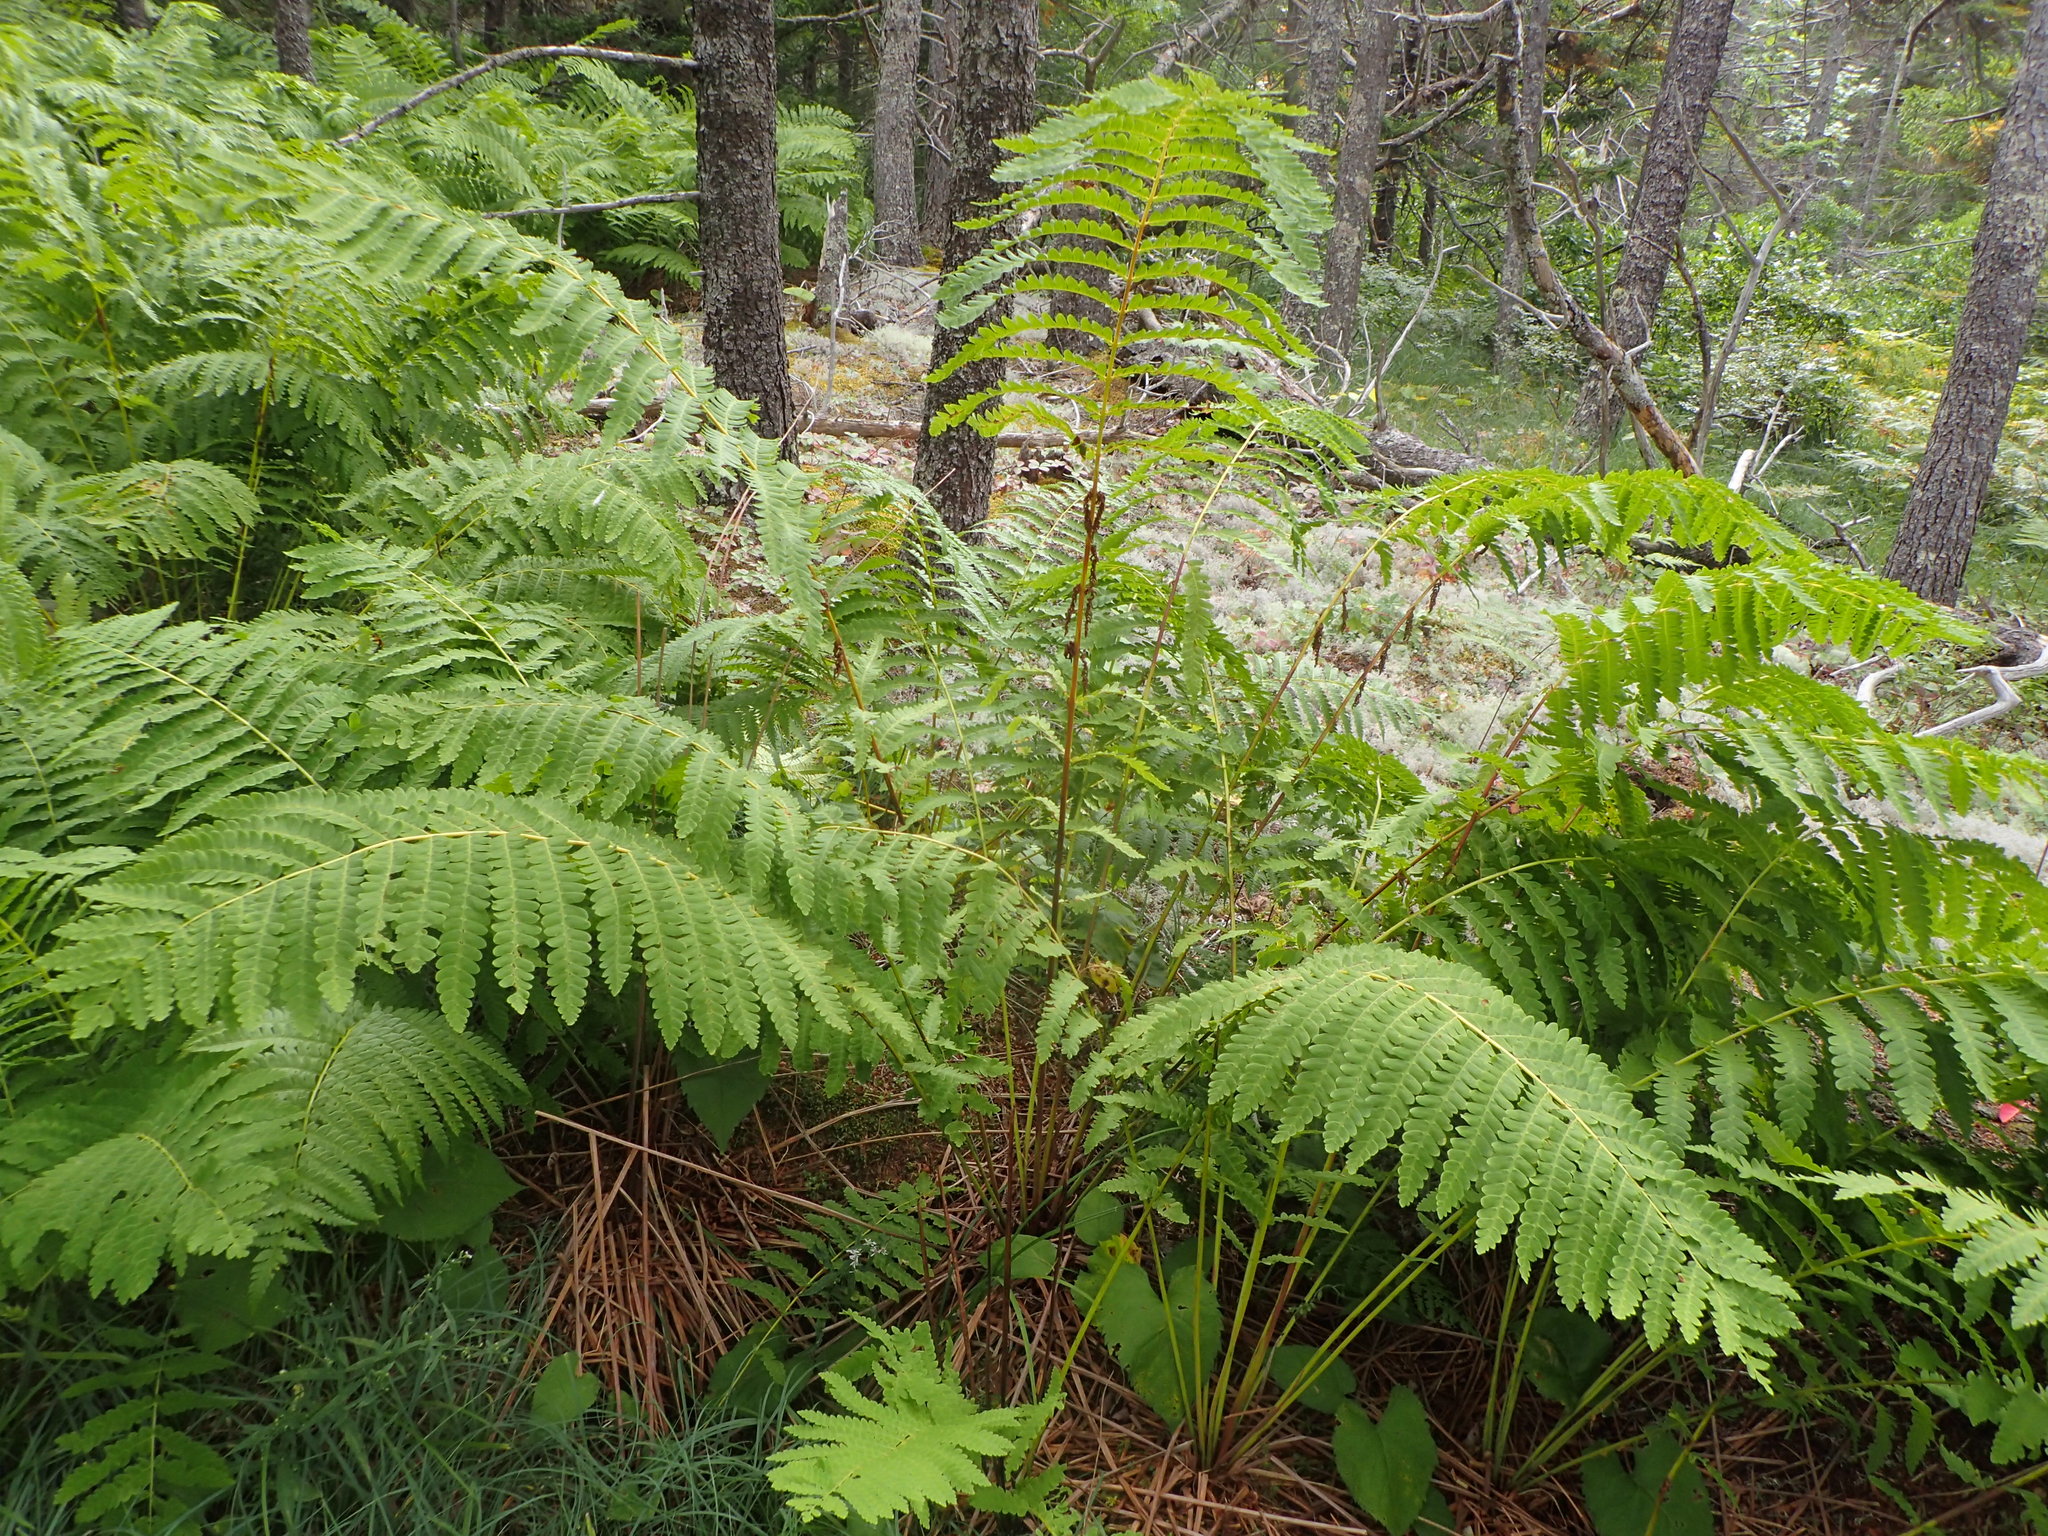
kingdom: Plantae
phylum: Tracheophyta
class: Polypodiopsida
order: Osmundales
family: Osmundaceae
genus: Claytosmunda
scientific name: Claytosmunda claytoniana
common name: Clayton's fern
